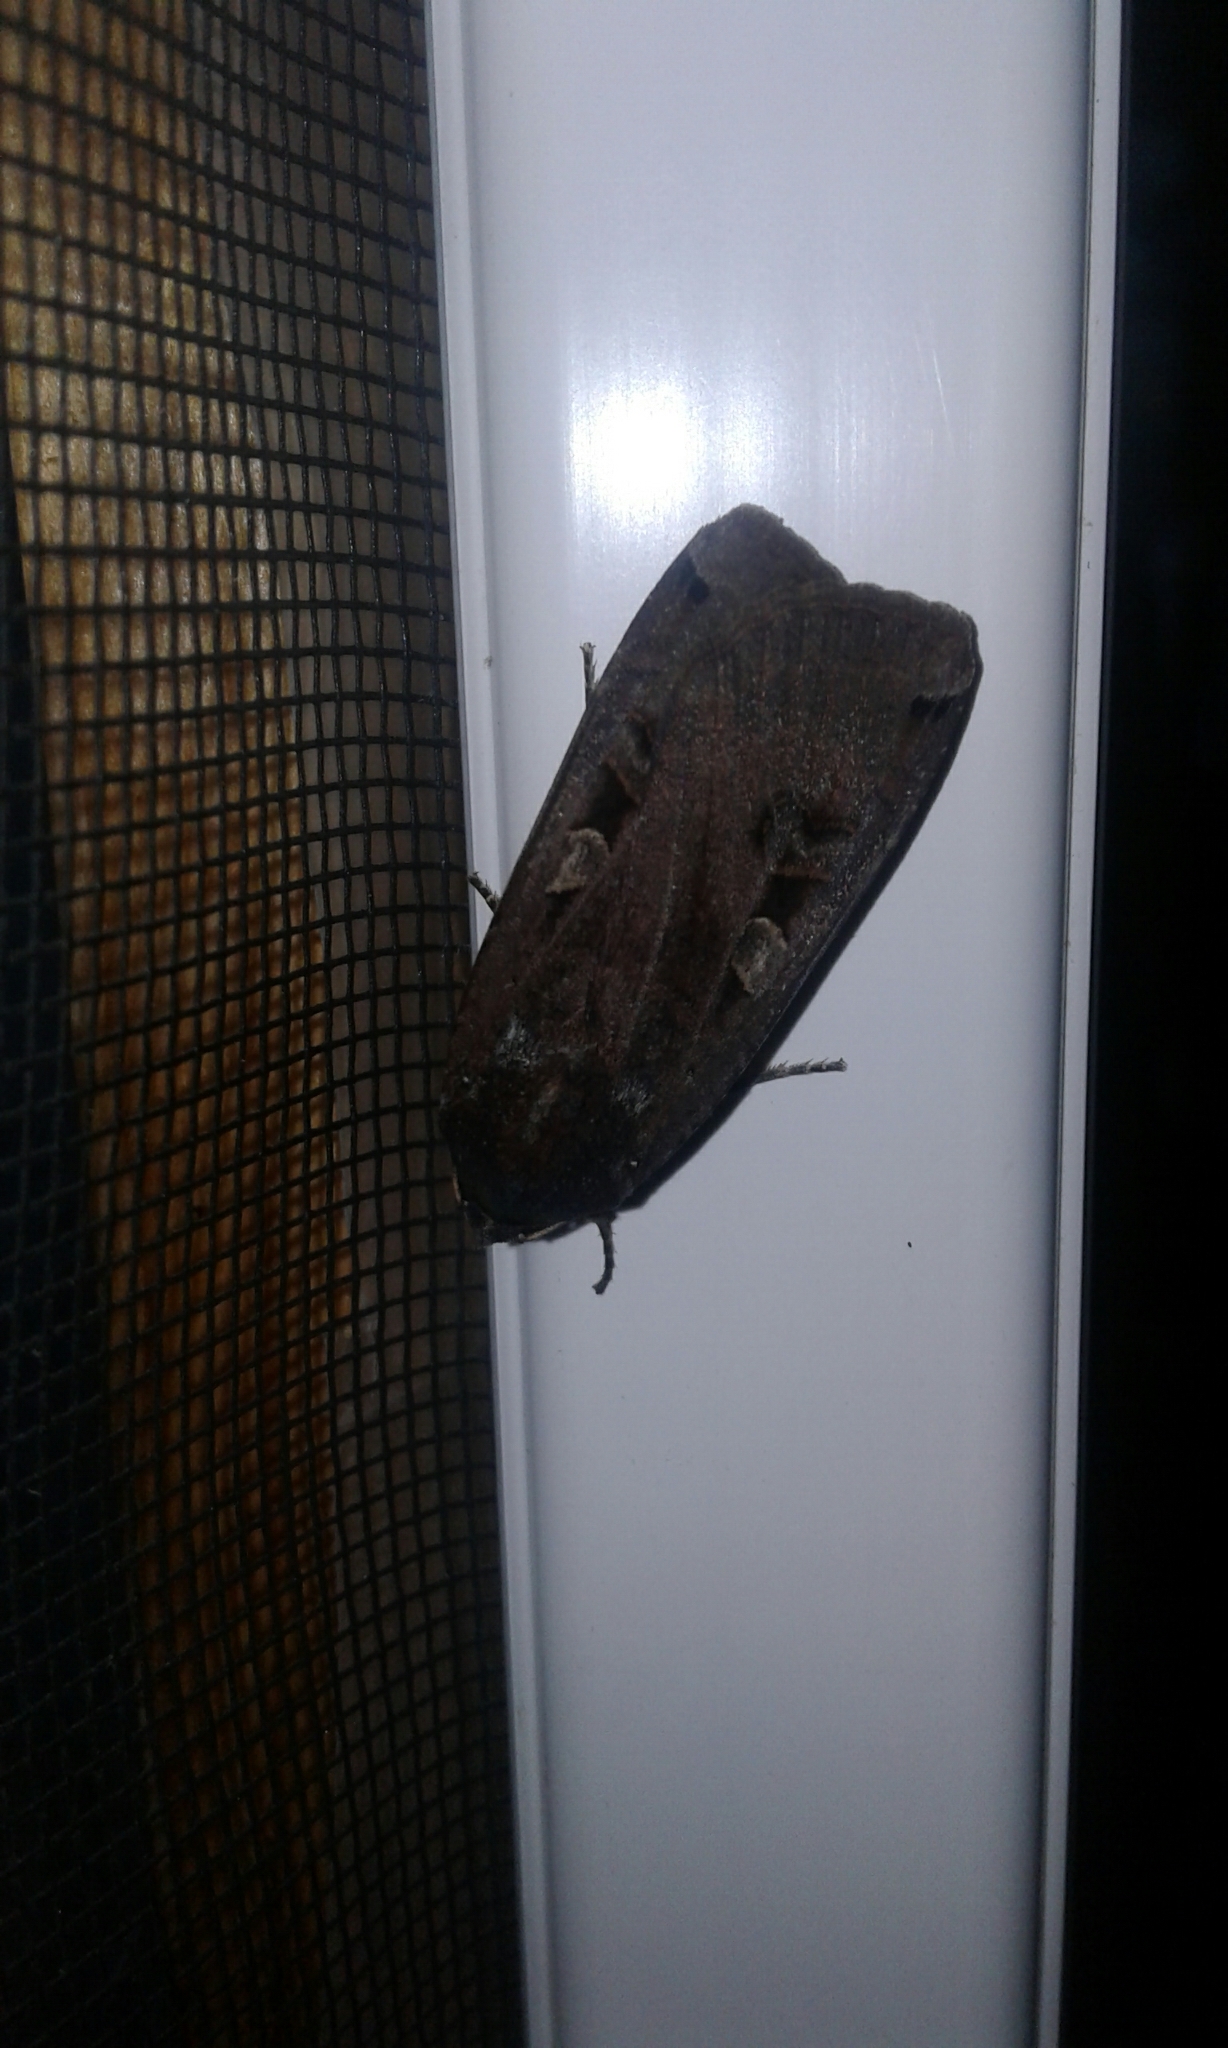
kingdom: Animalia
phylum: Arthropoda
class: Insecta
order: Lepidoptera
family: Noctuidae
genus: Noctua
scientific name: Noctua pronuba
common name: Large yellow underwing
